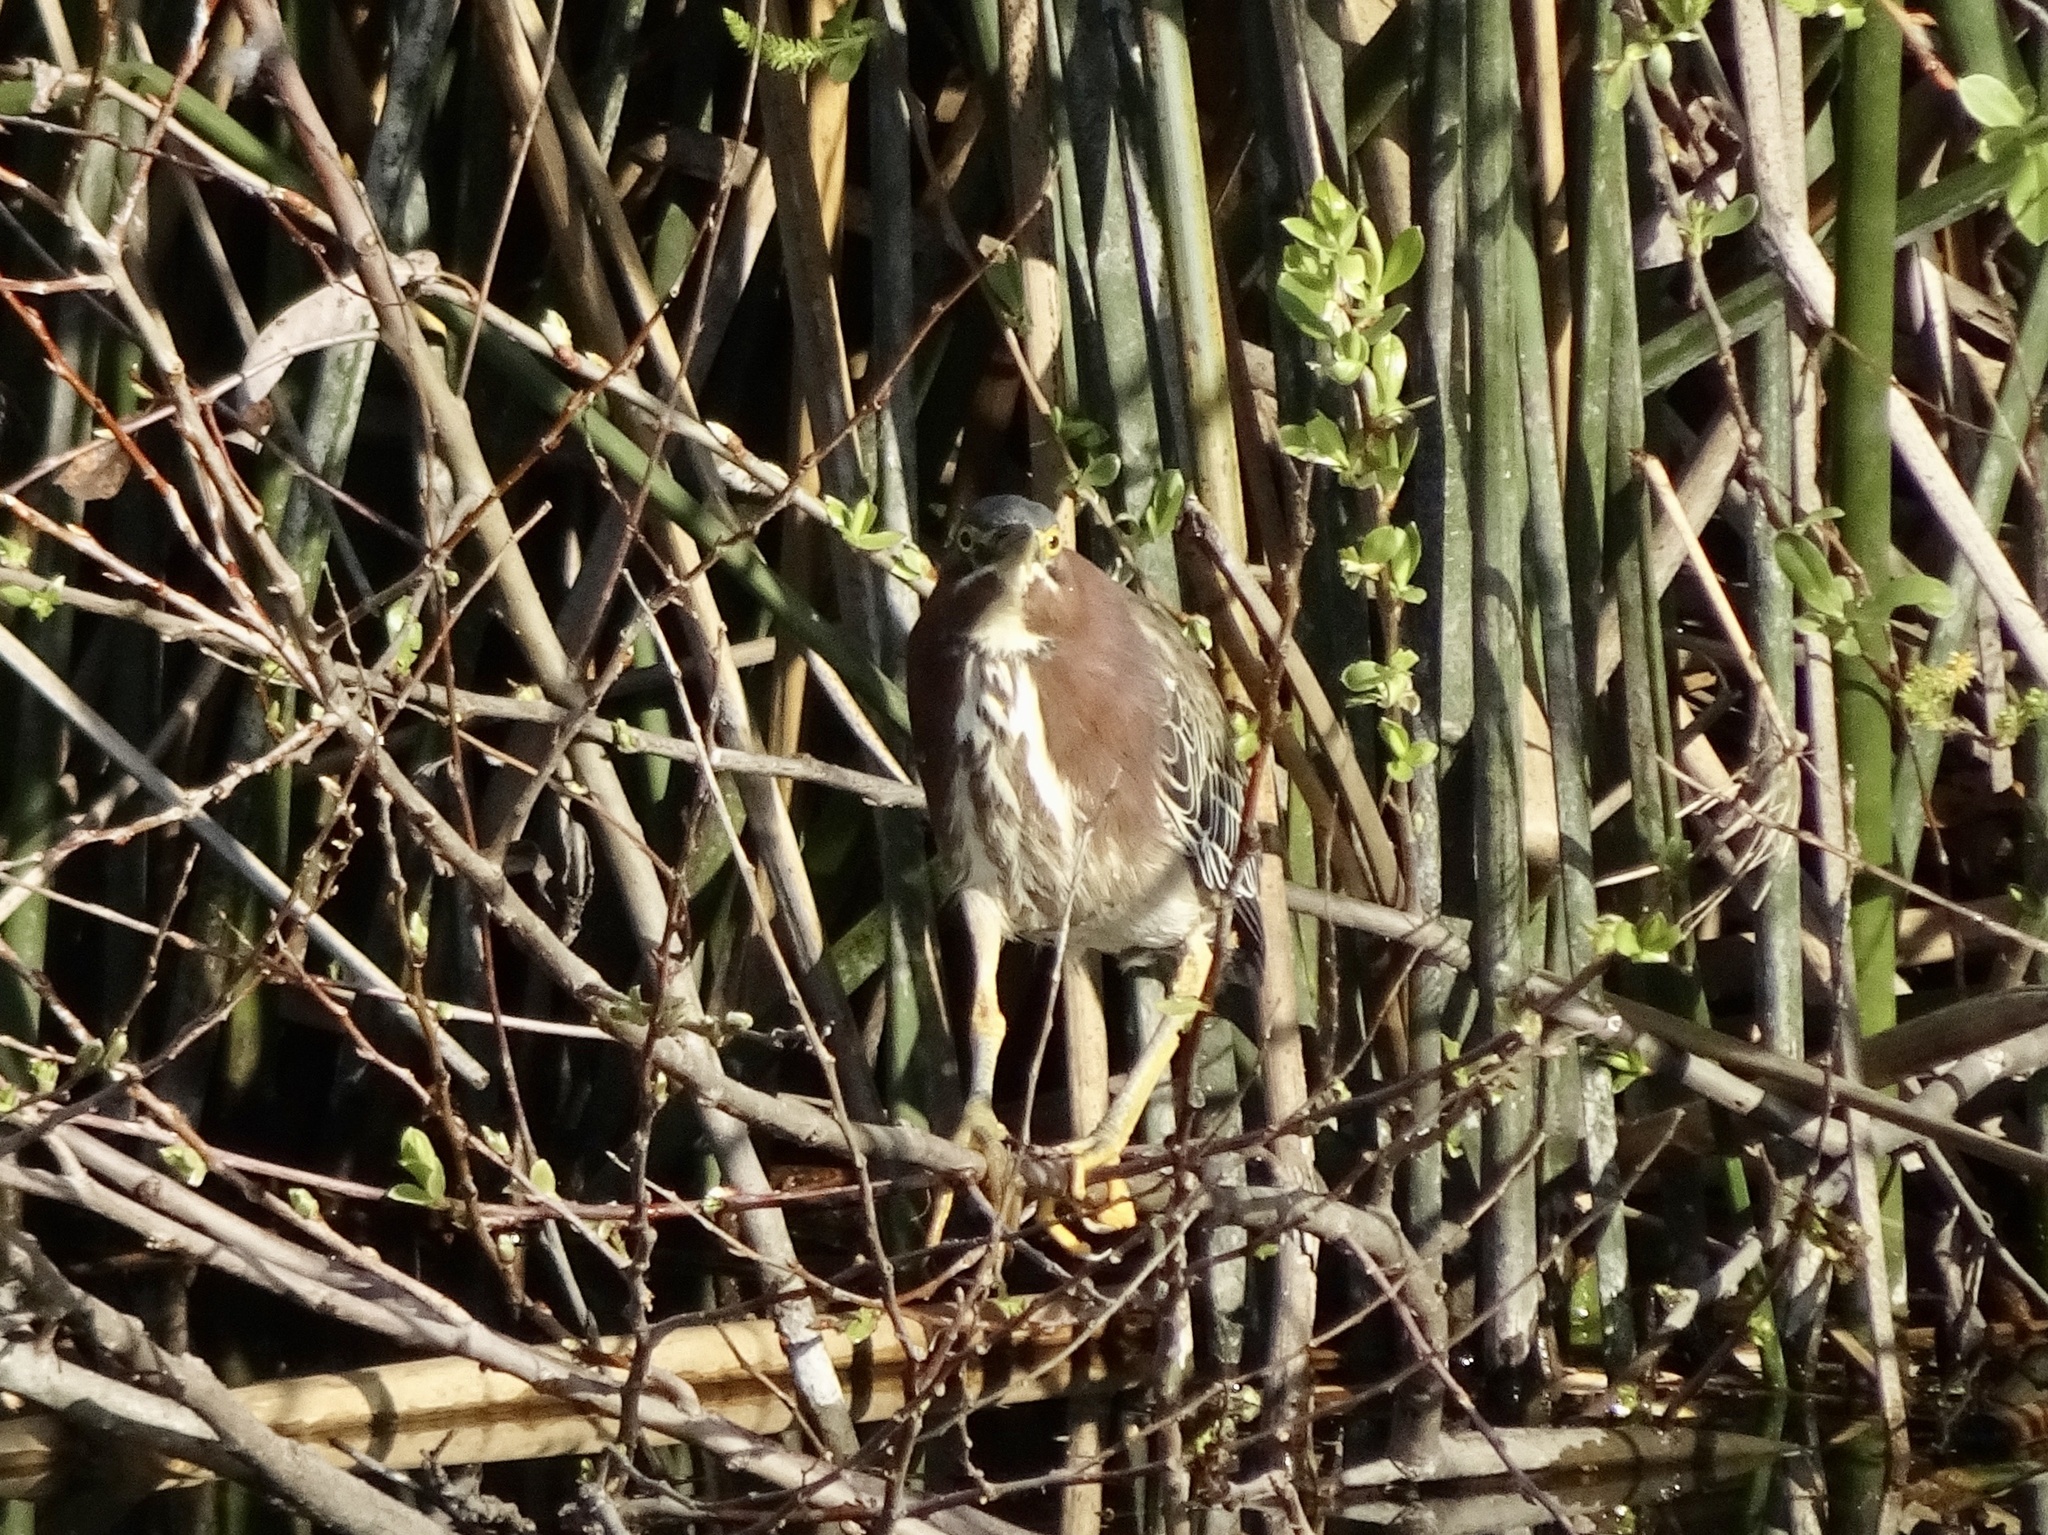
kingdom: Animalia
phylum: Chordata
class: Aves
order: Pelecaniformes
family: Ardeidae
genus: Butorides
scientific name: Butorides virescens
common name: Green heron
